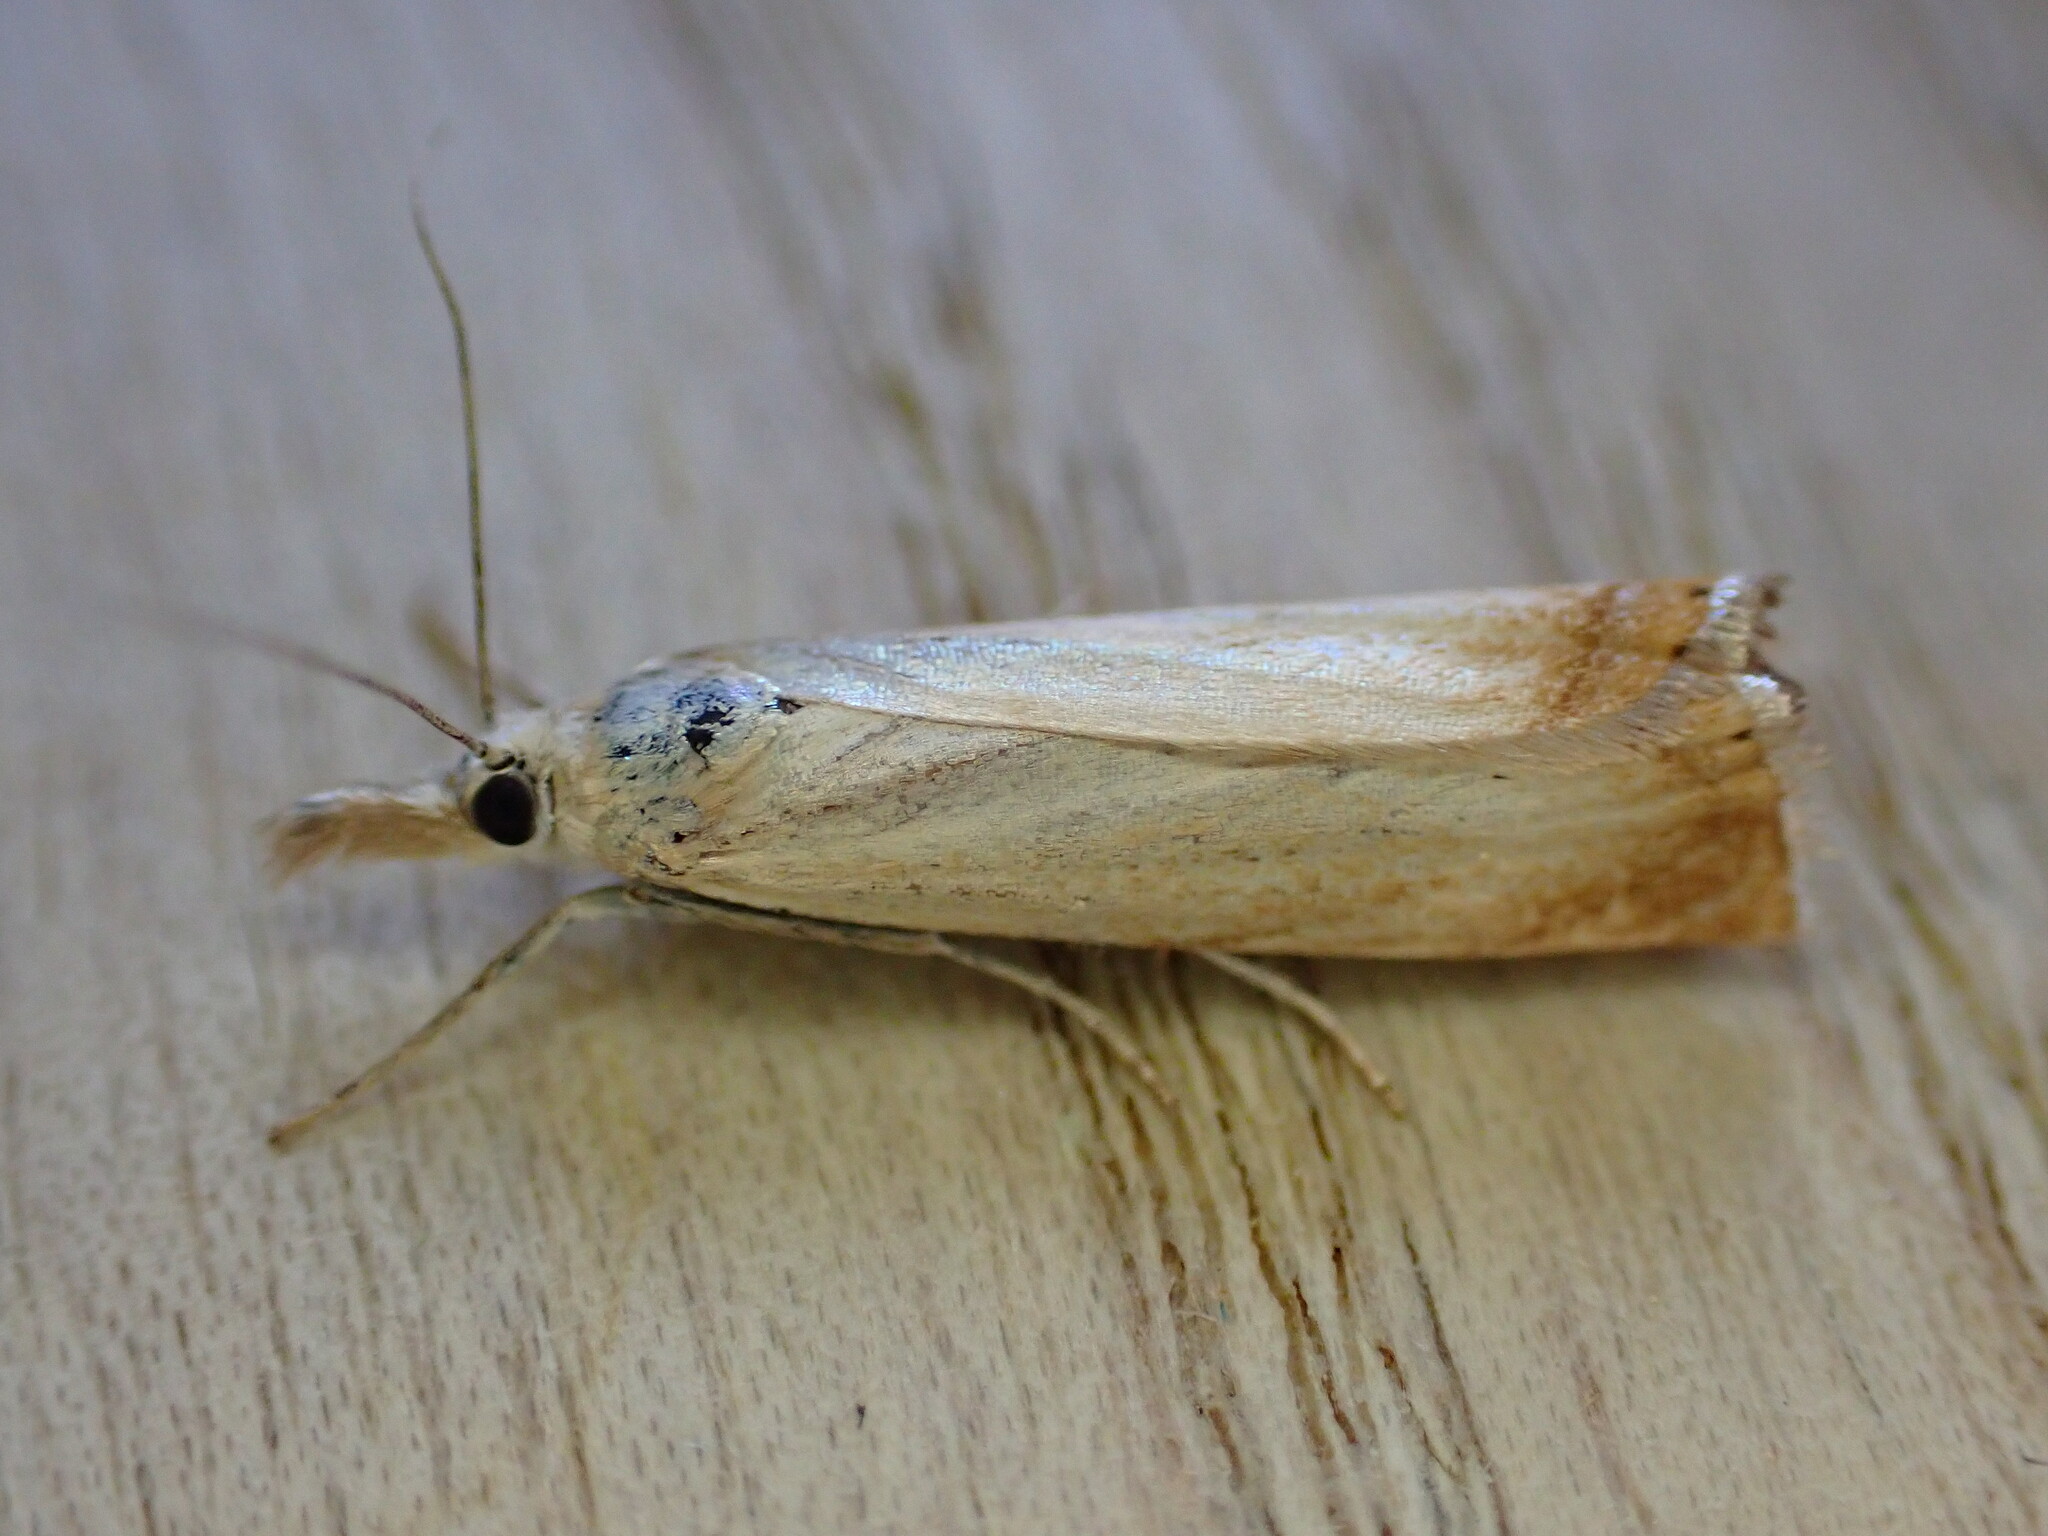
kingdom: Animalia
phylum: Arthropoda
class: Insecta
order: Lepidoptera
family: Crambidae
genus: Chrysoteuchia
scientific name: Chrysoteuchia culmella
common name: Garden grass-veneer
